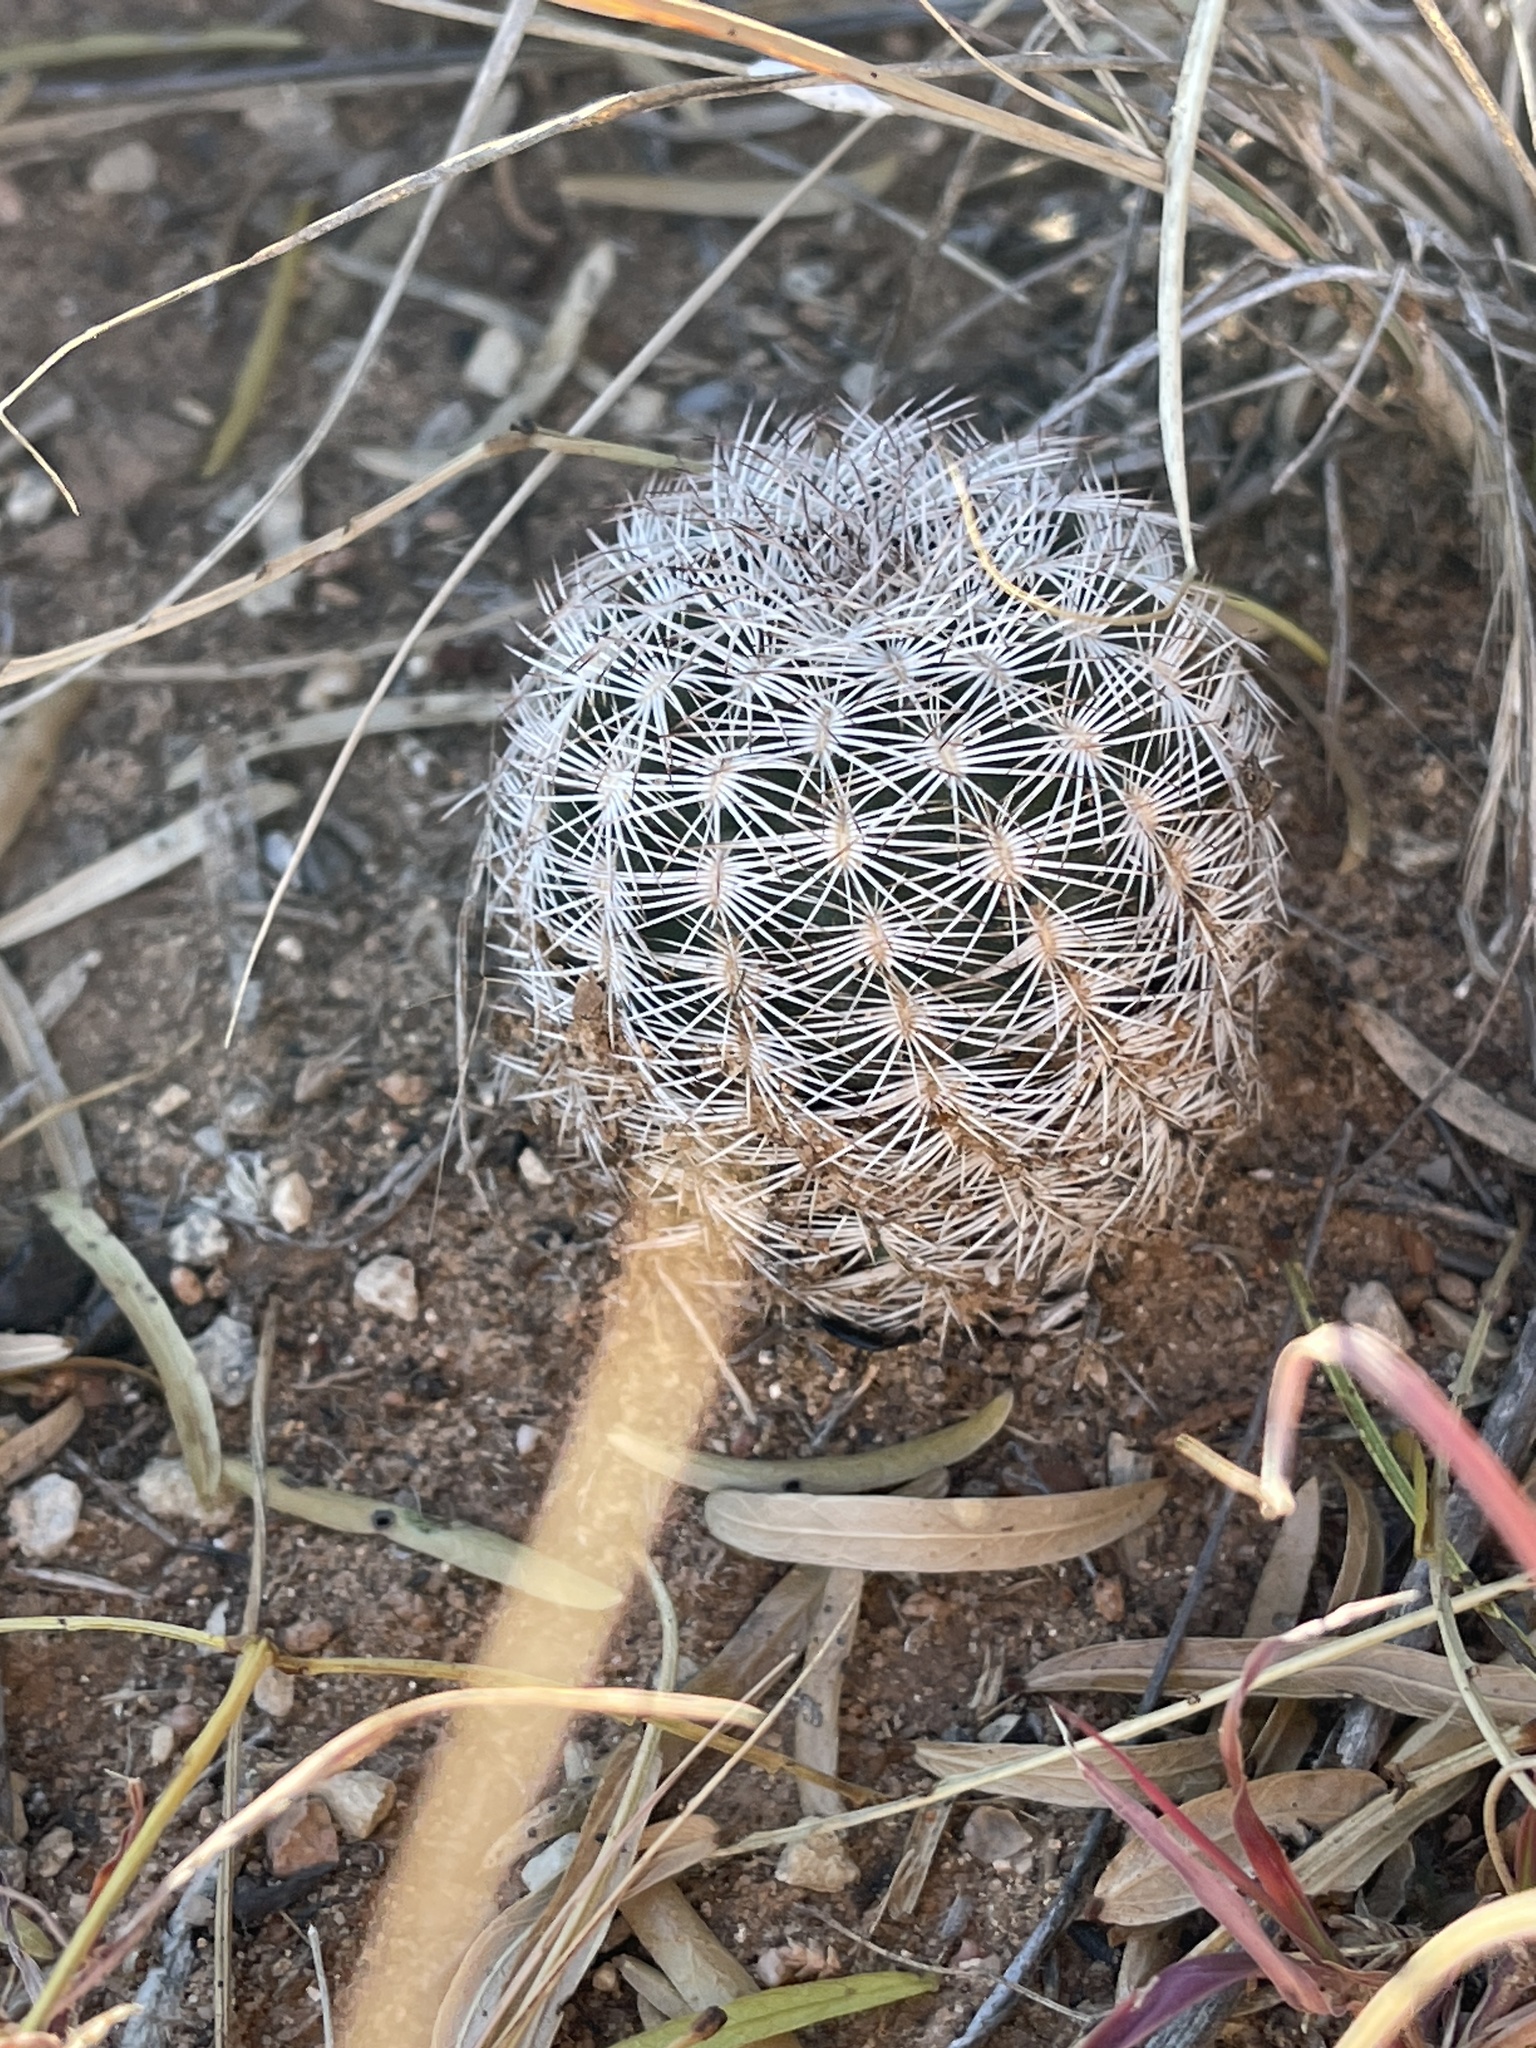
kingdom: Plantae
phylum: Tracheophyta
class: Magnoliopsida
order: Caryophyllales
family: Cactaceae
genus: Echinocereus
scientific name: Echinocereus reichenbachii
